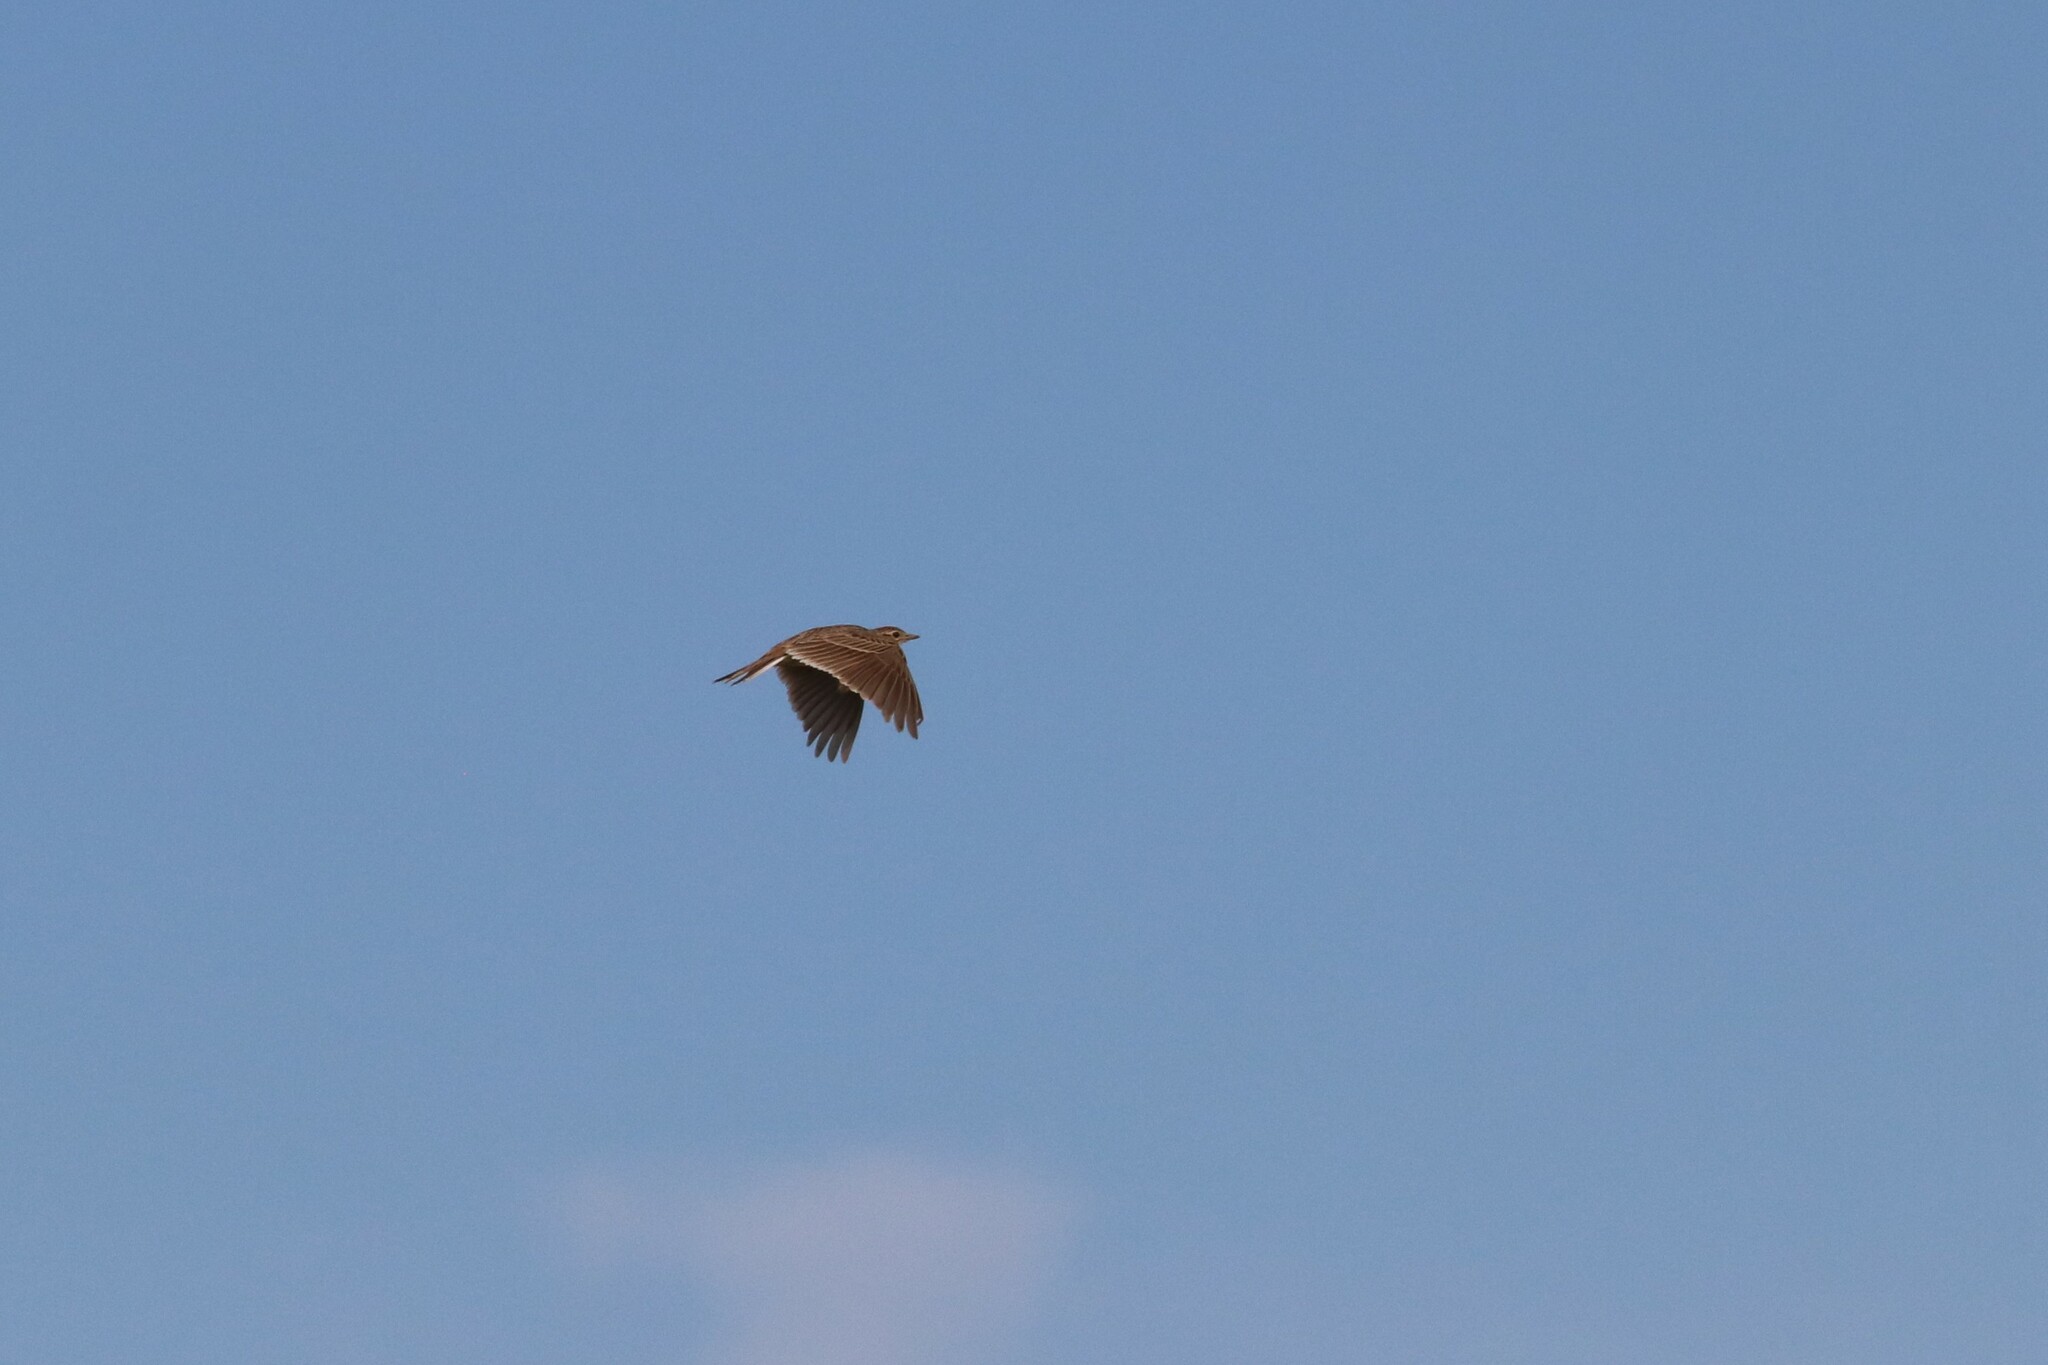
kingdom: Animalia
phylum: Chordata
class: Aves
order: Passeriformes
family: Alaudidae
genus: Alauda
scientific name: Alauda arvensis
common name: Eurasian skylark
